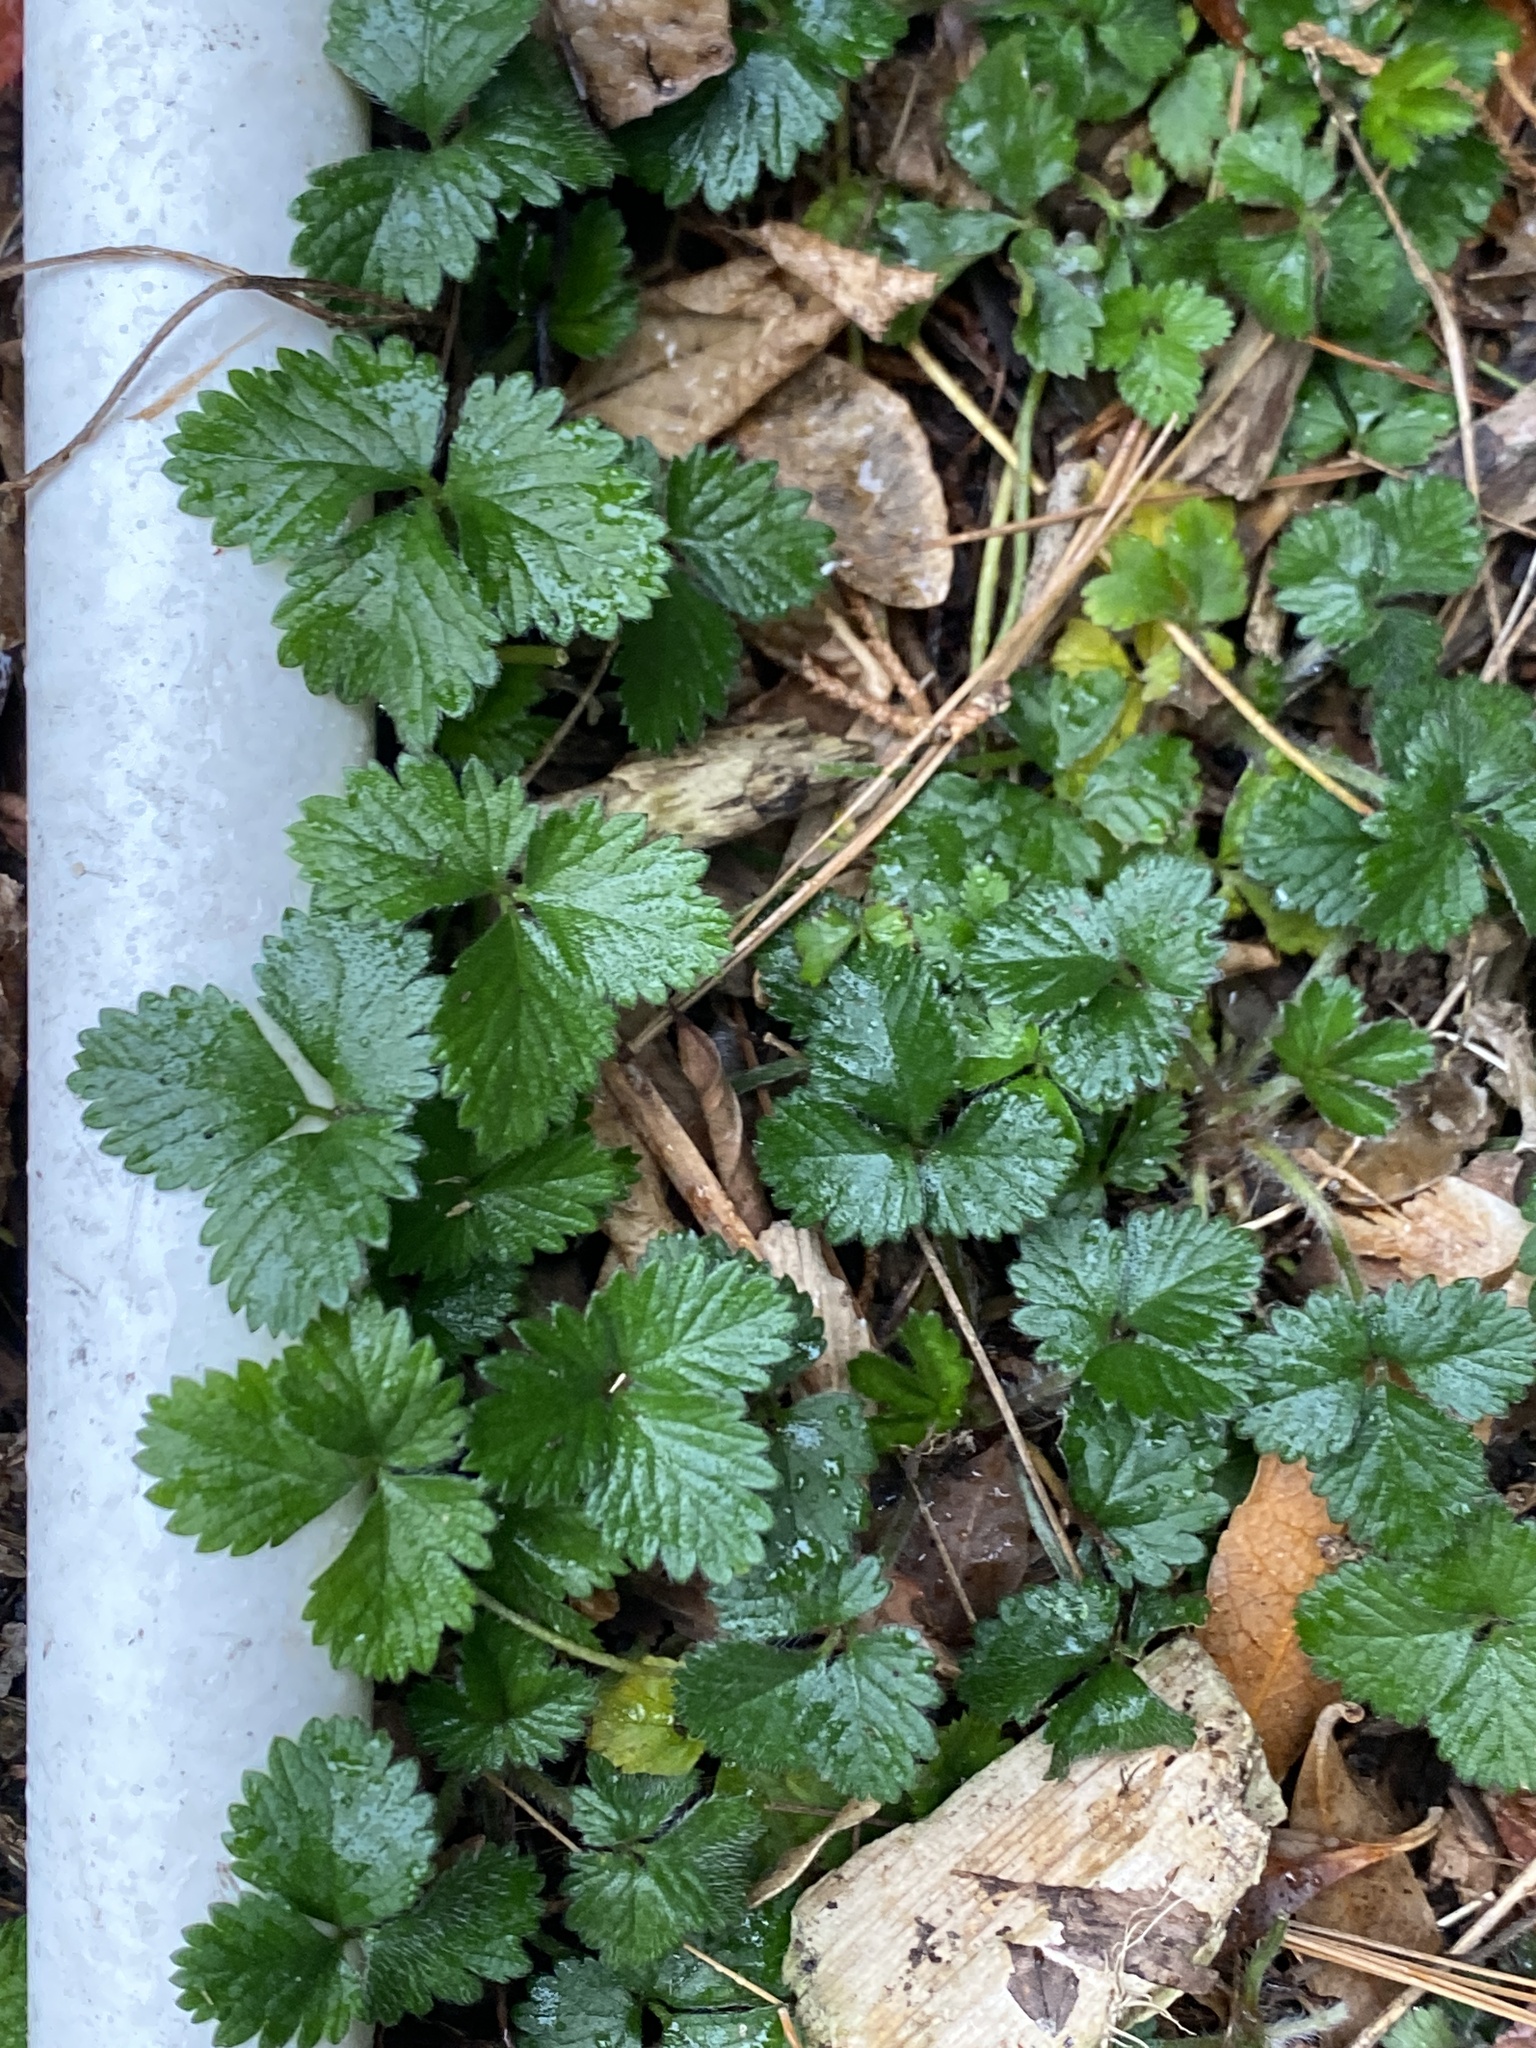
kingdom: Plantae
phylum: Tracheophyta
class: Magnoliopsida
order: Rosales
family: Rosaceae
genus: Potentilla
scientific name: Potentilla indica
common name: Yellow-flowered strawberry
